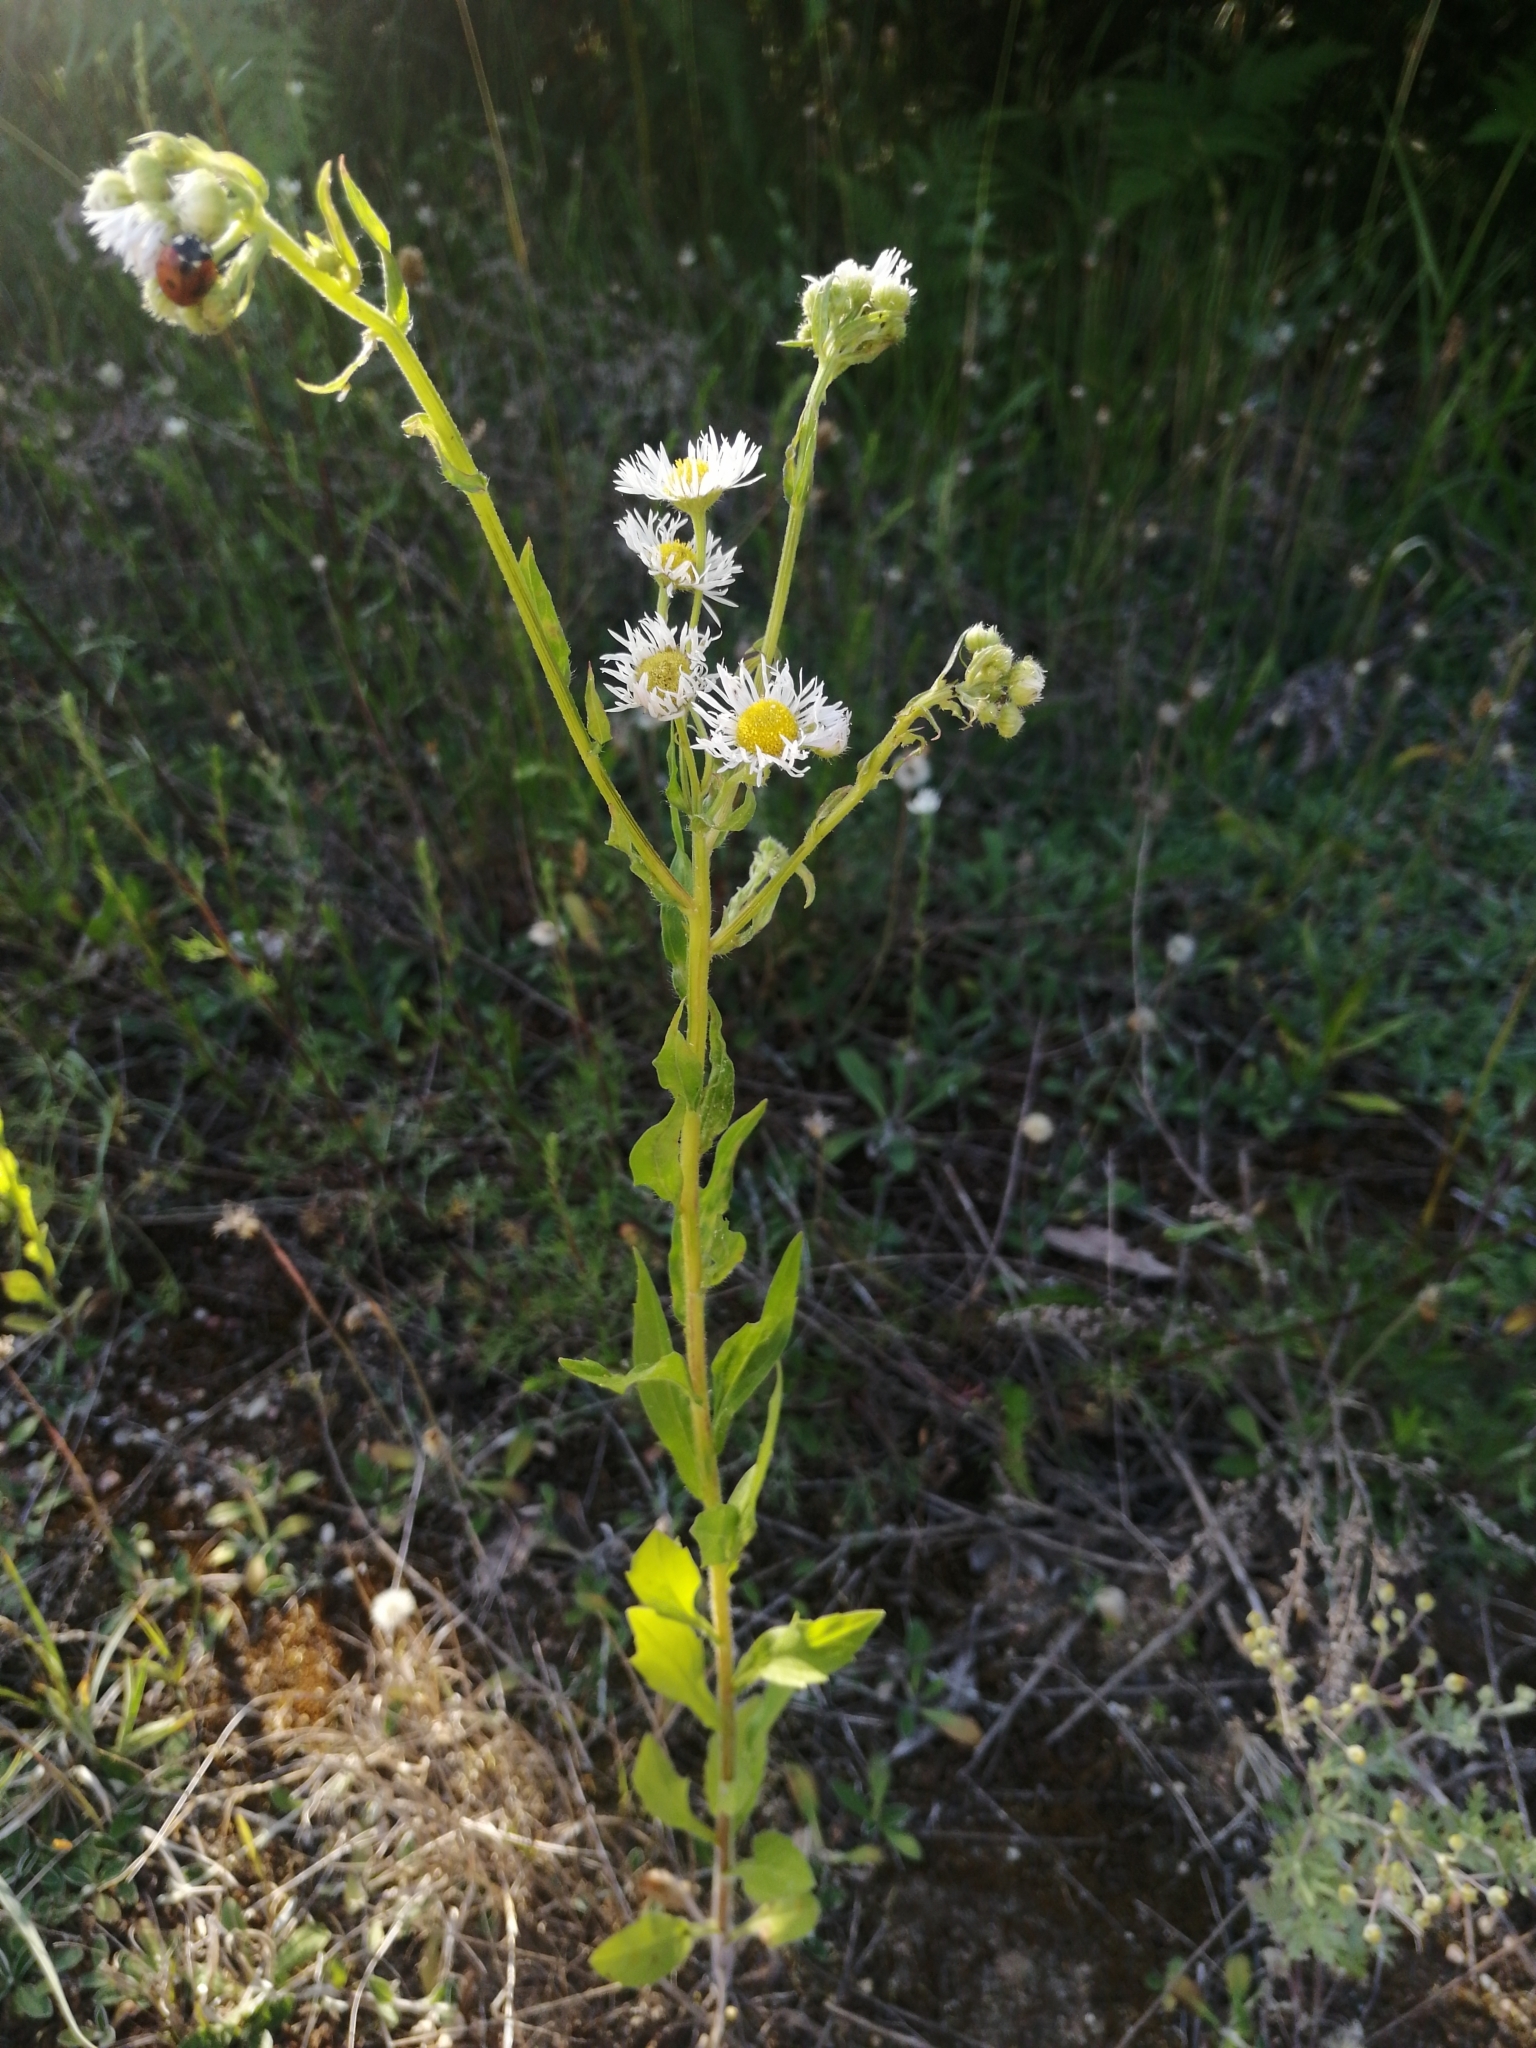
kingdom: Plantae
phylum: Tracheophyta
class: Magnoliopsida
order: Asterales
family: Asteraceae
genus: Erigeron
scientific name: Erigeron annuus
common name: Tall fleabane
